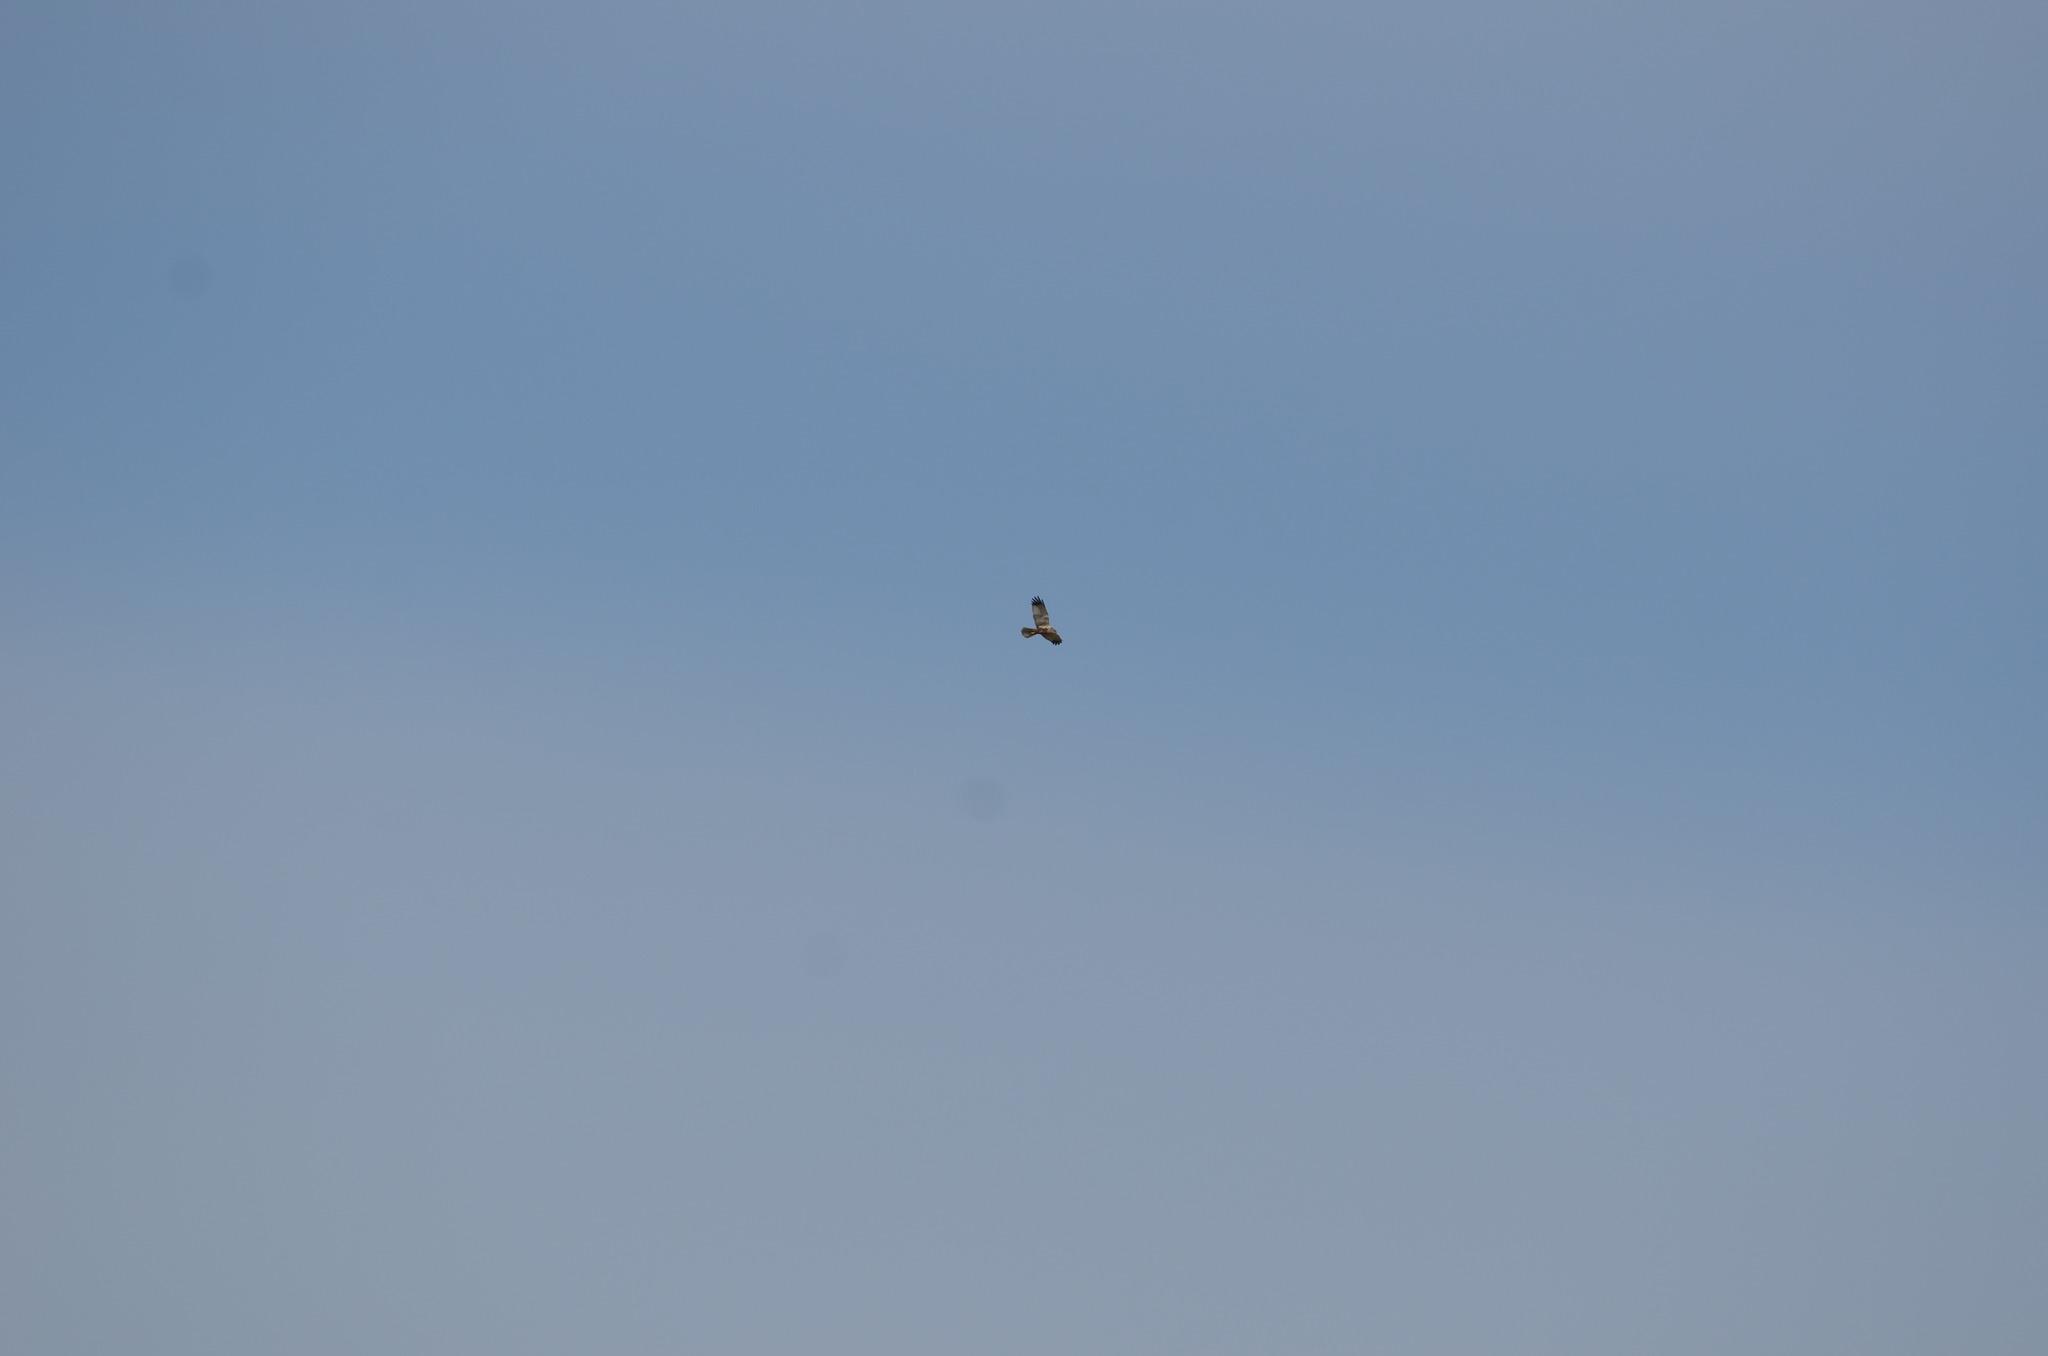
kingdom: Animalia
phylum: Chordata
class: Aves
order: Accipitriformes
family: Accipitridae
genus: Circus
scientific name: Circus aeruginosus
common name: Western marsh harrier
